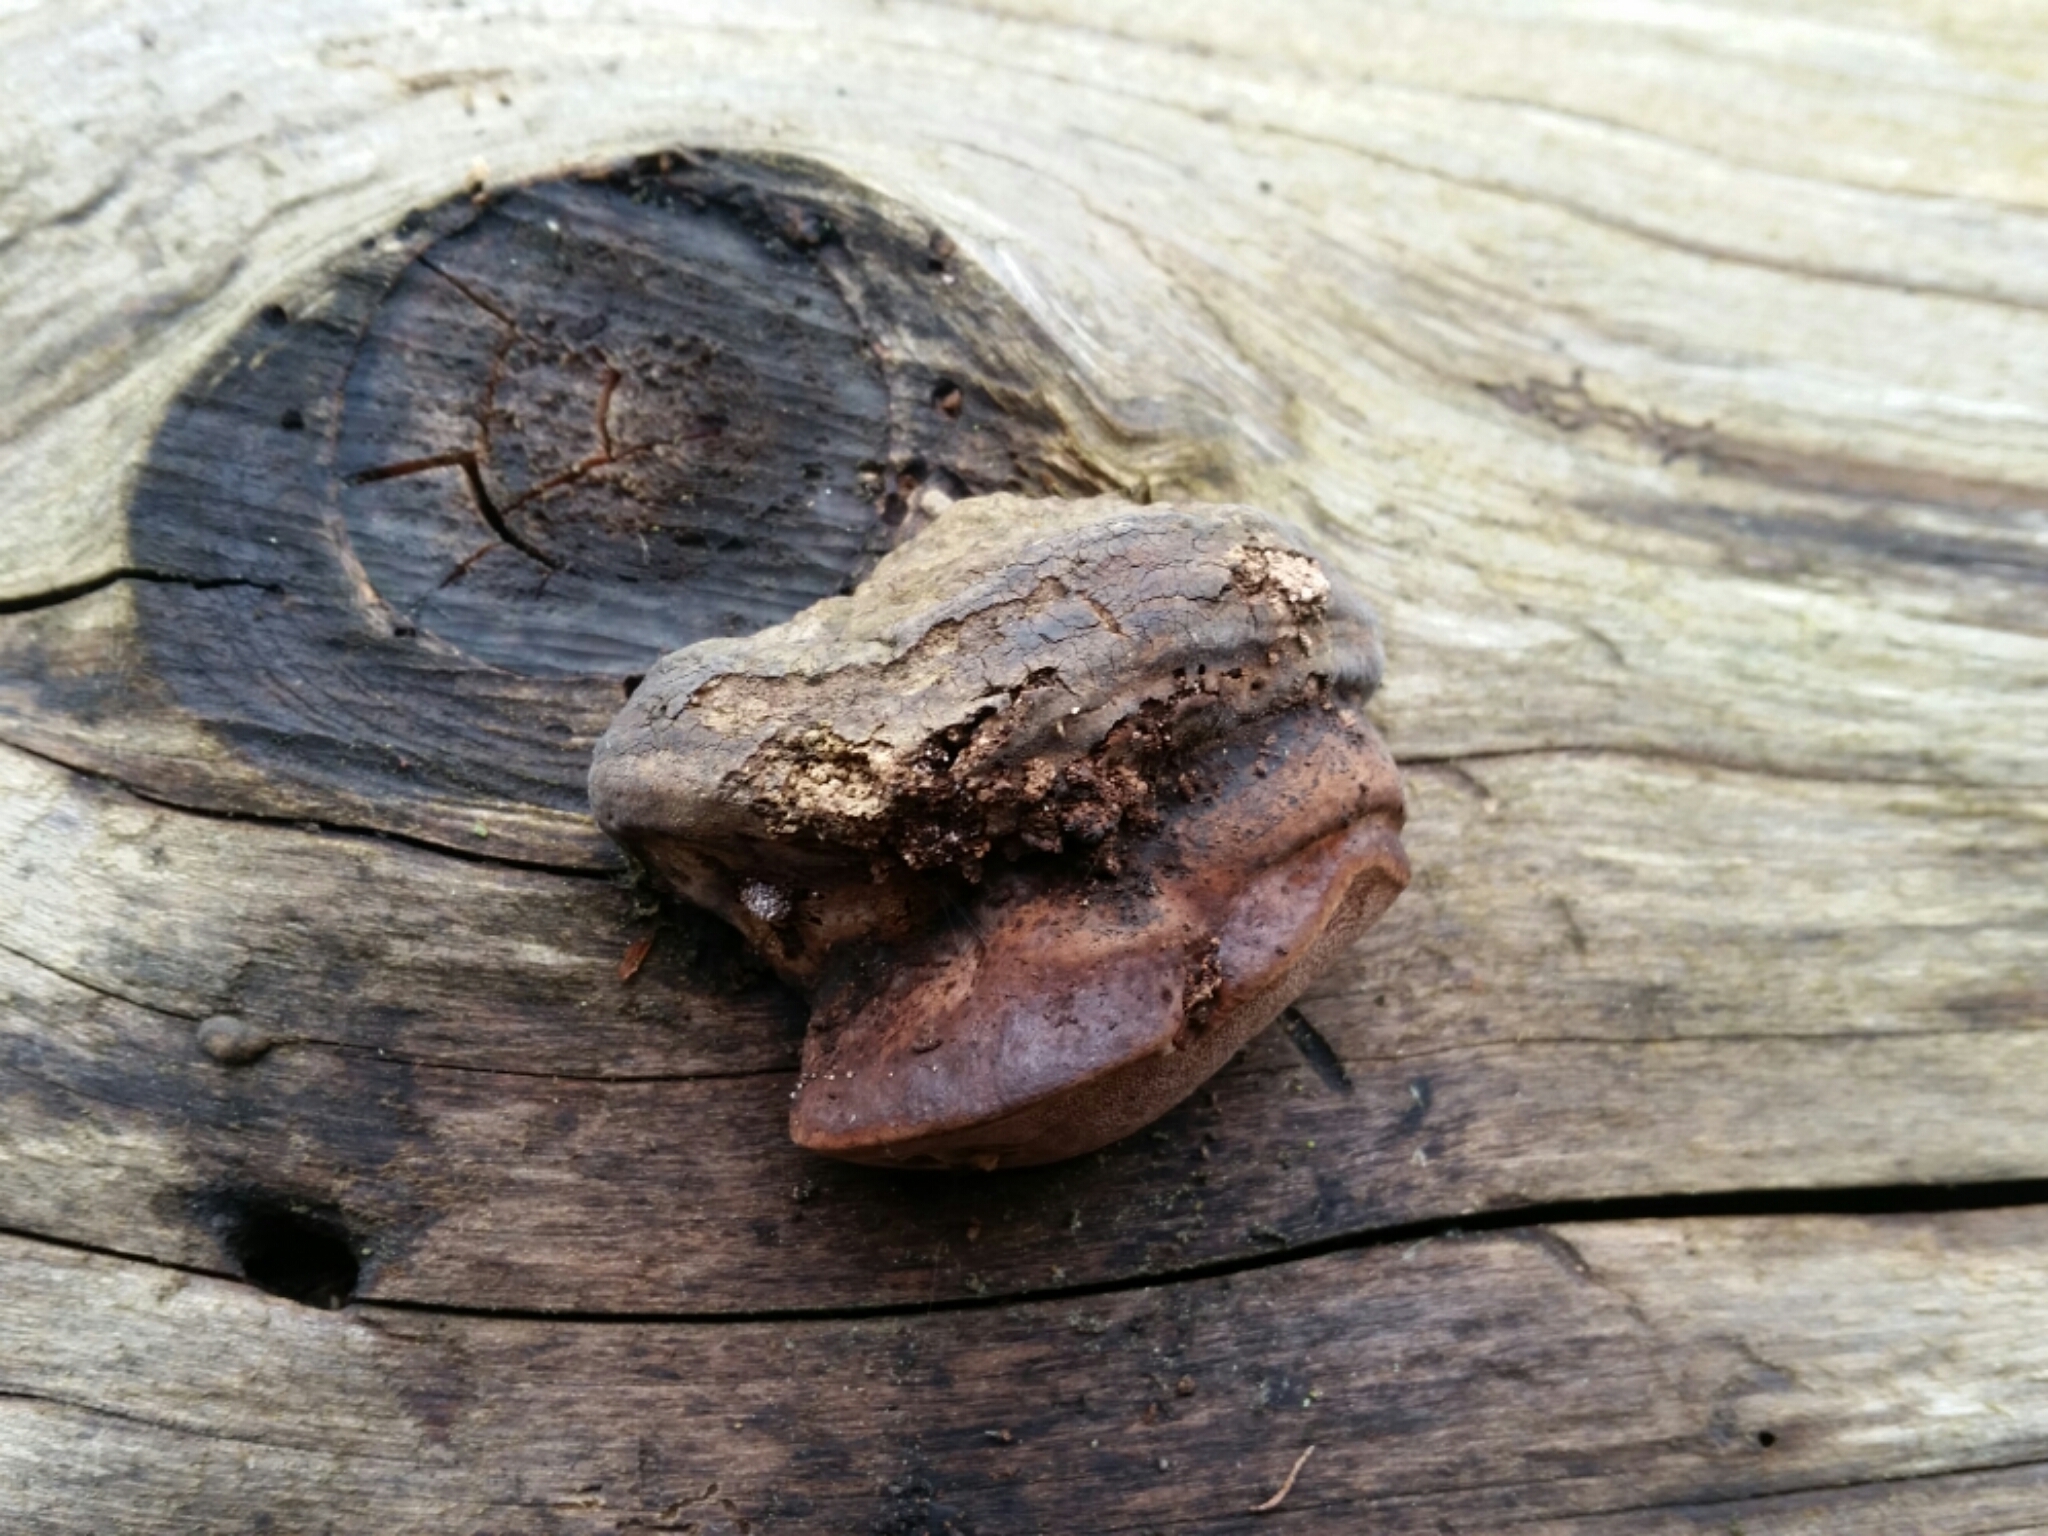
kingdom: Fungi
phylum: Basidiomycota
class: Agaricomycetes
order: Polyporales
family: Fomitopsidaceae
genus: Rhodofomes
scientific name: Rhodofomes roseus
